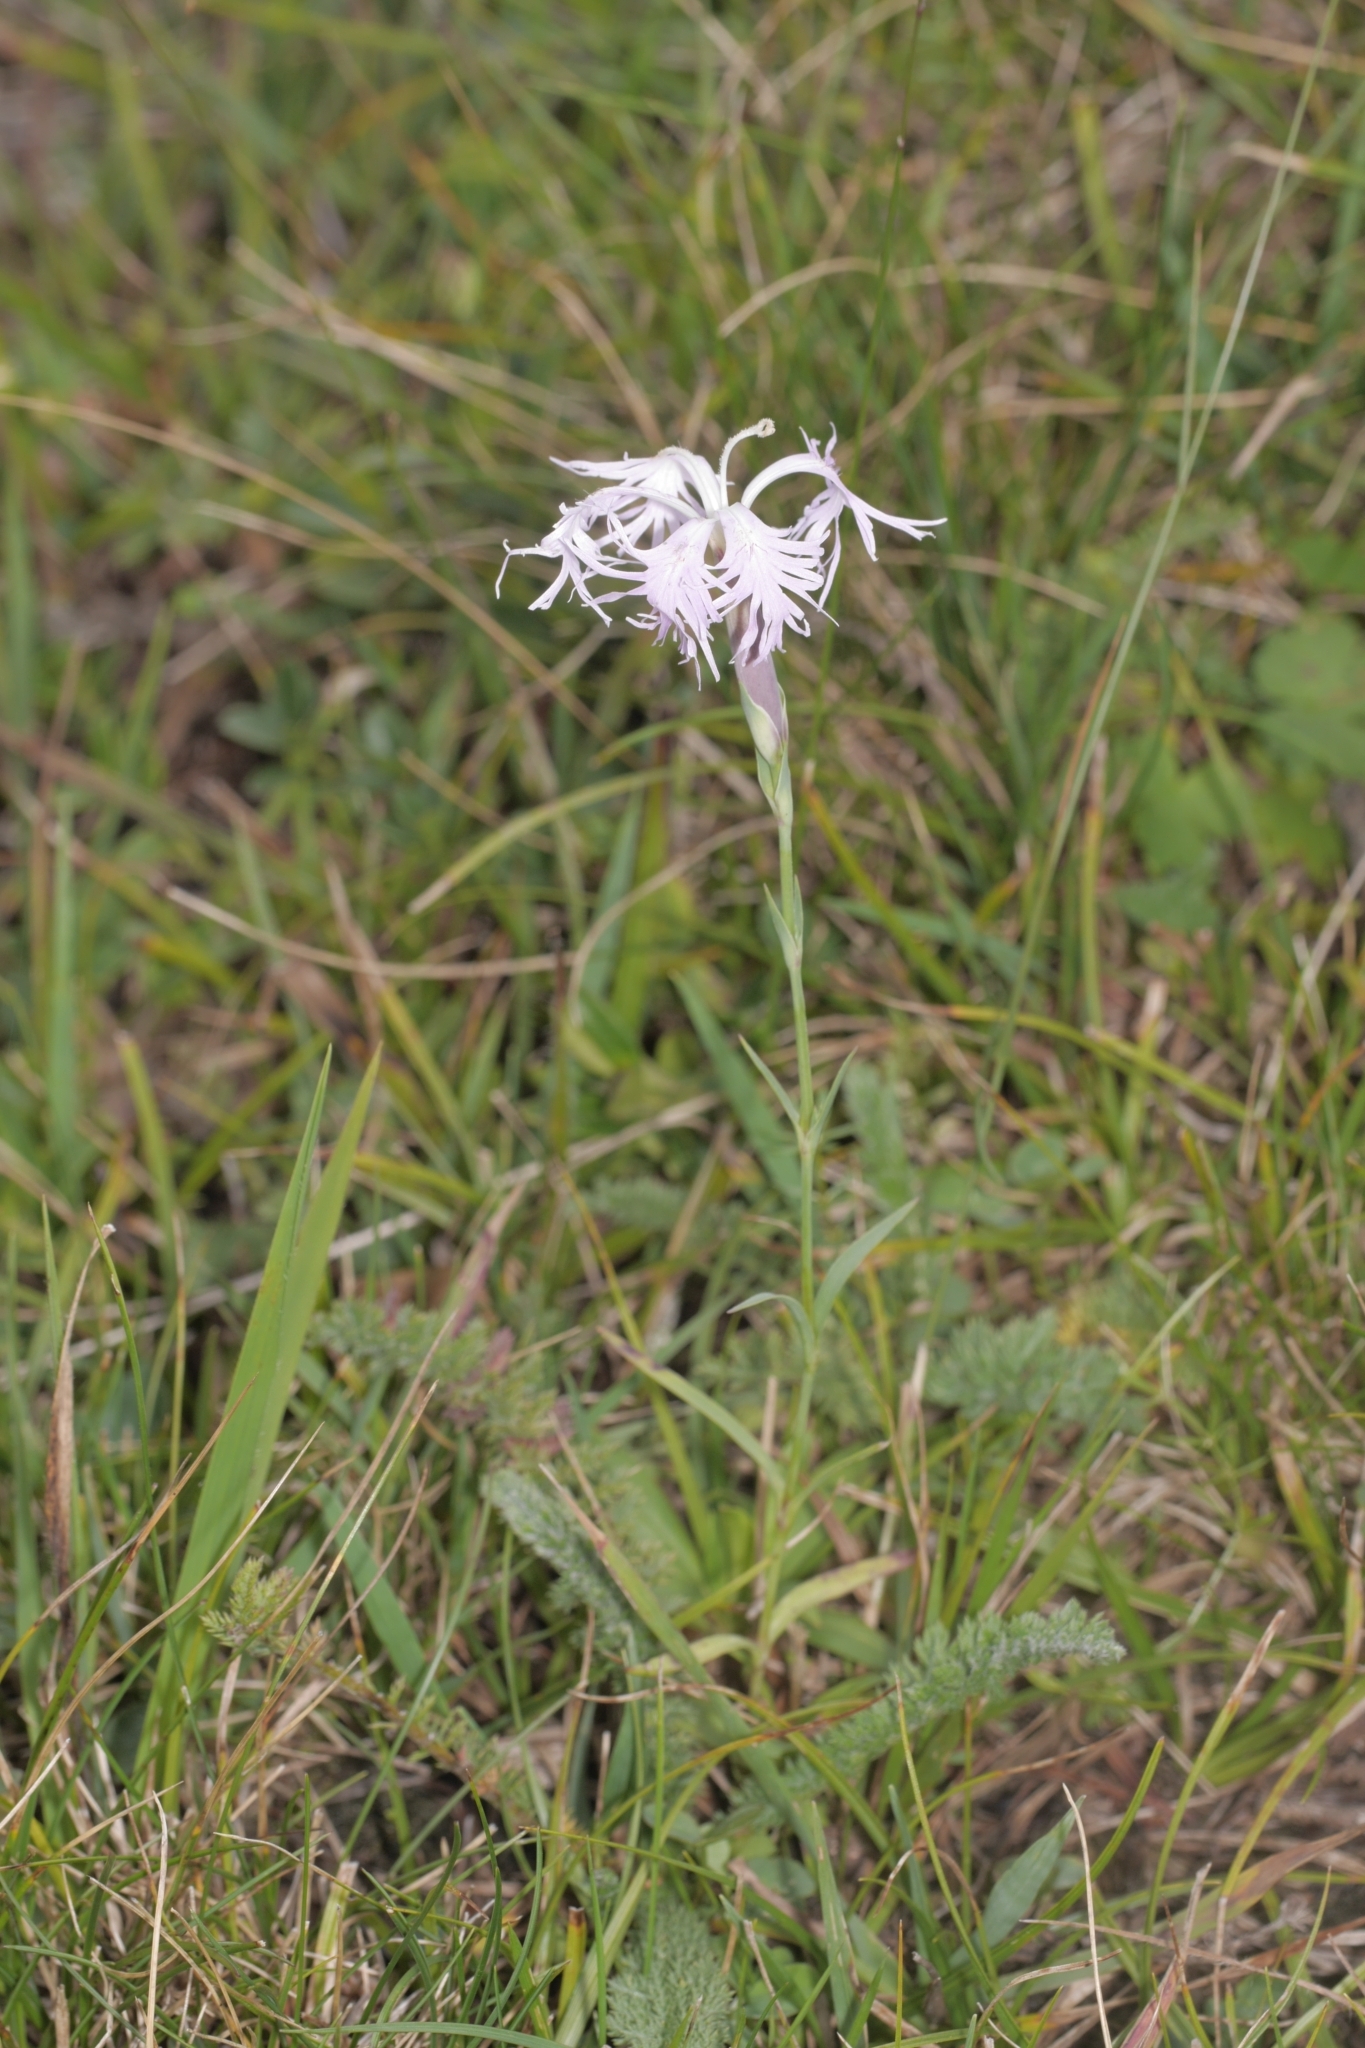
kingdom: Plantae
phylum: Tracheophyta
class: Magnoliopsida
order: Caryophyllales
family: Caryophyllaceae
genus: Dianthus
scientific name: Dianthus superbus
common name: Fringed pink
